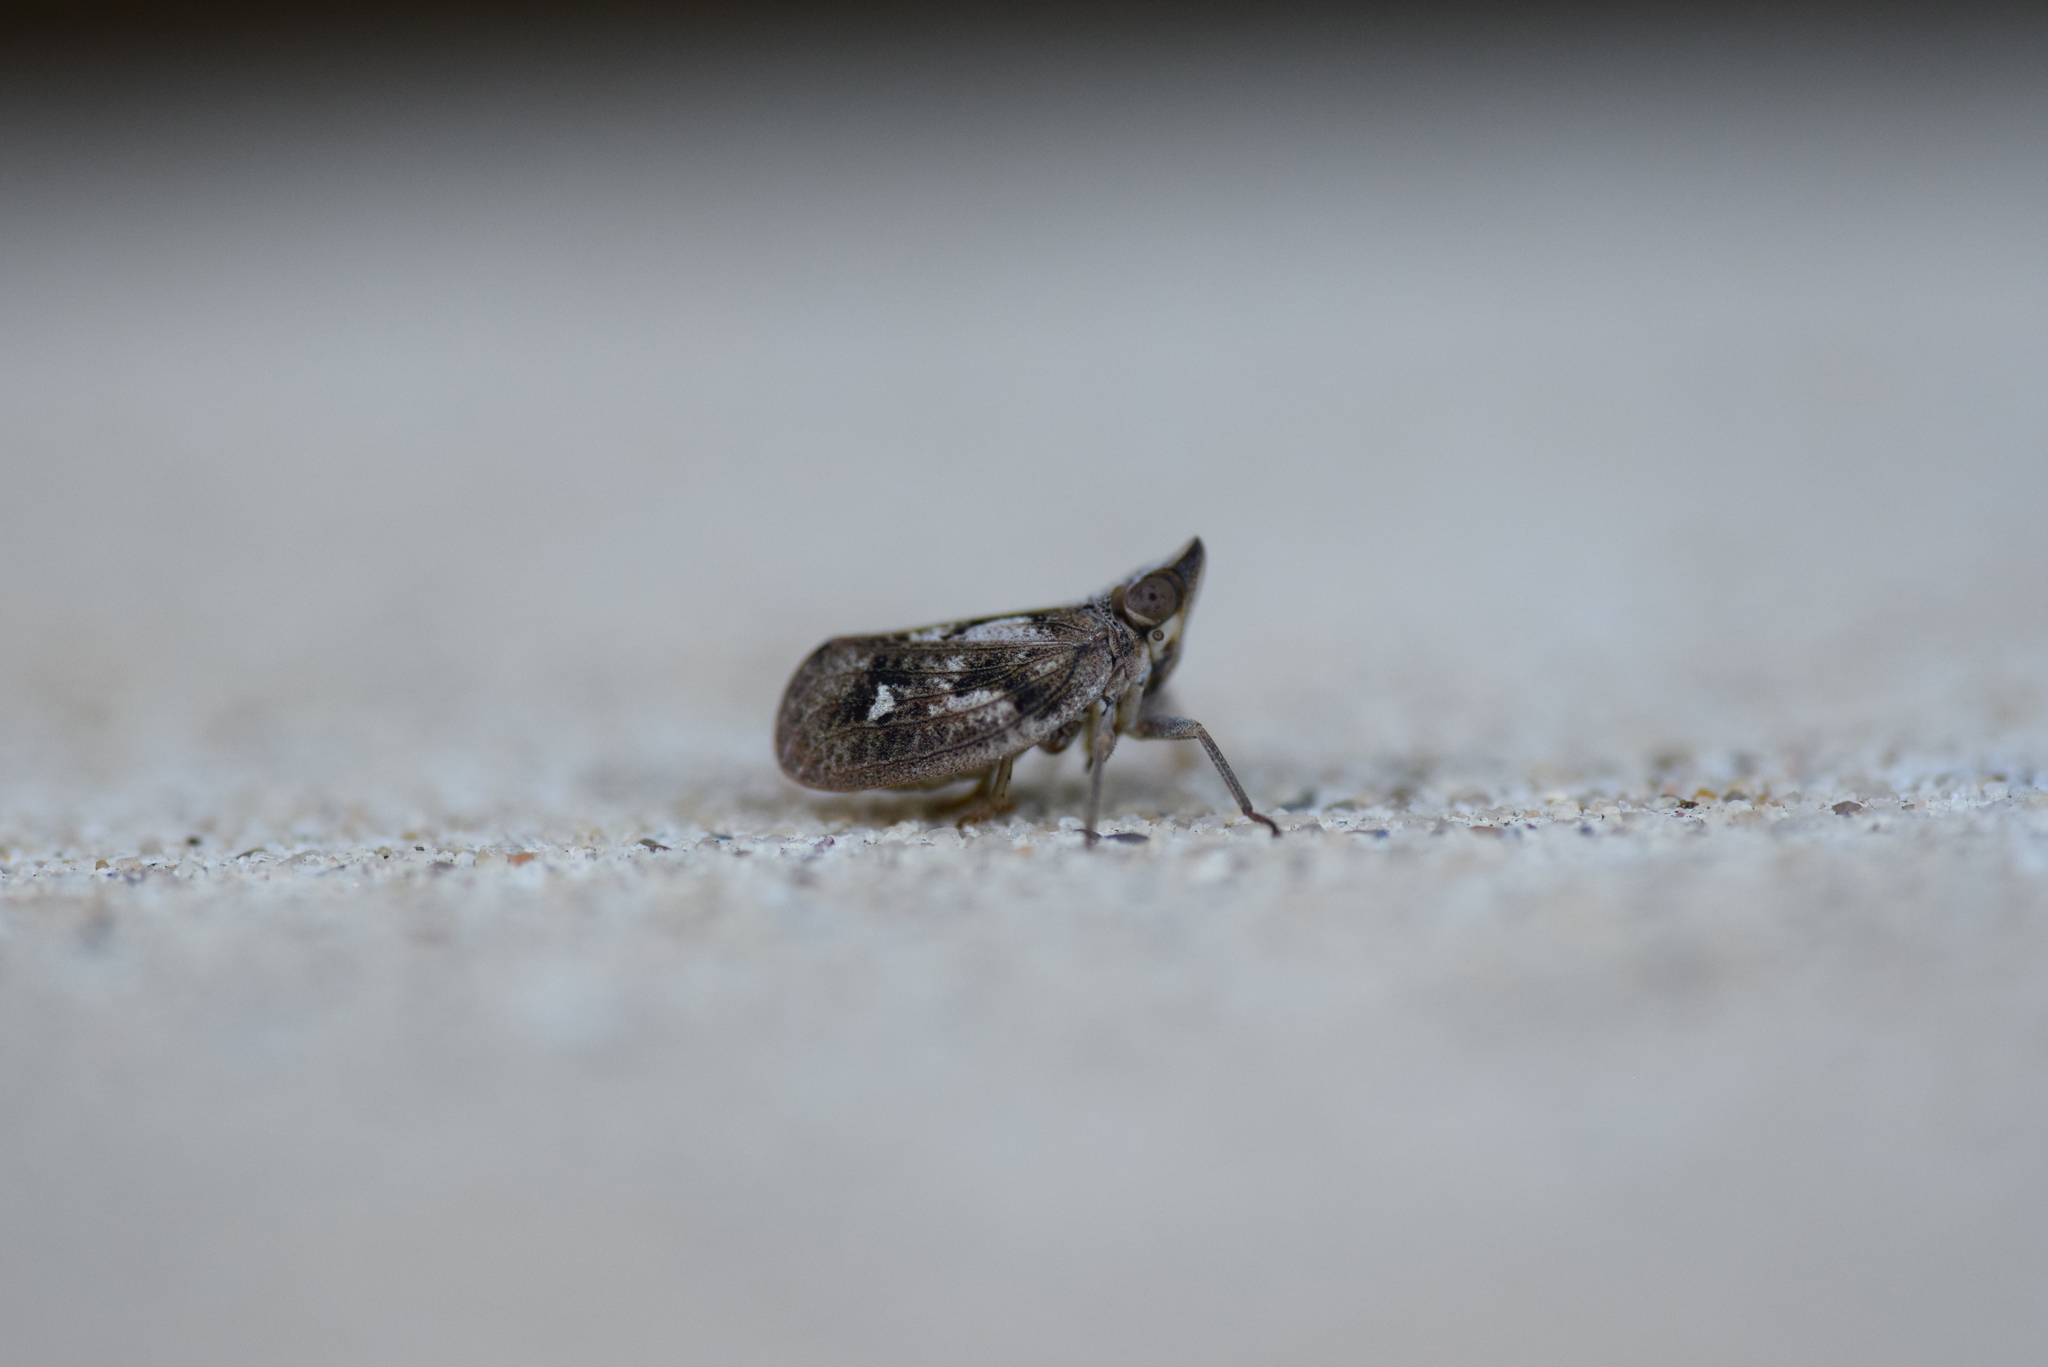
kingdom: Animalia
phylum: Arthropoda
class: Insecta
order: Hemiptera
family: Issidae
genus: Fowlerium
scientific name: Fowlerium acutum
